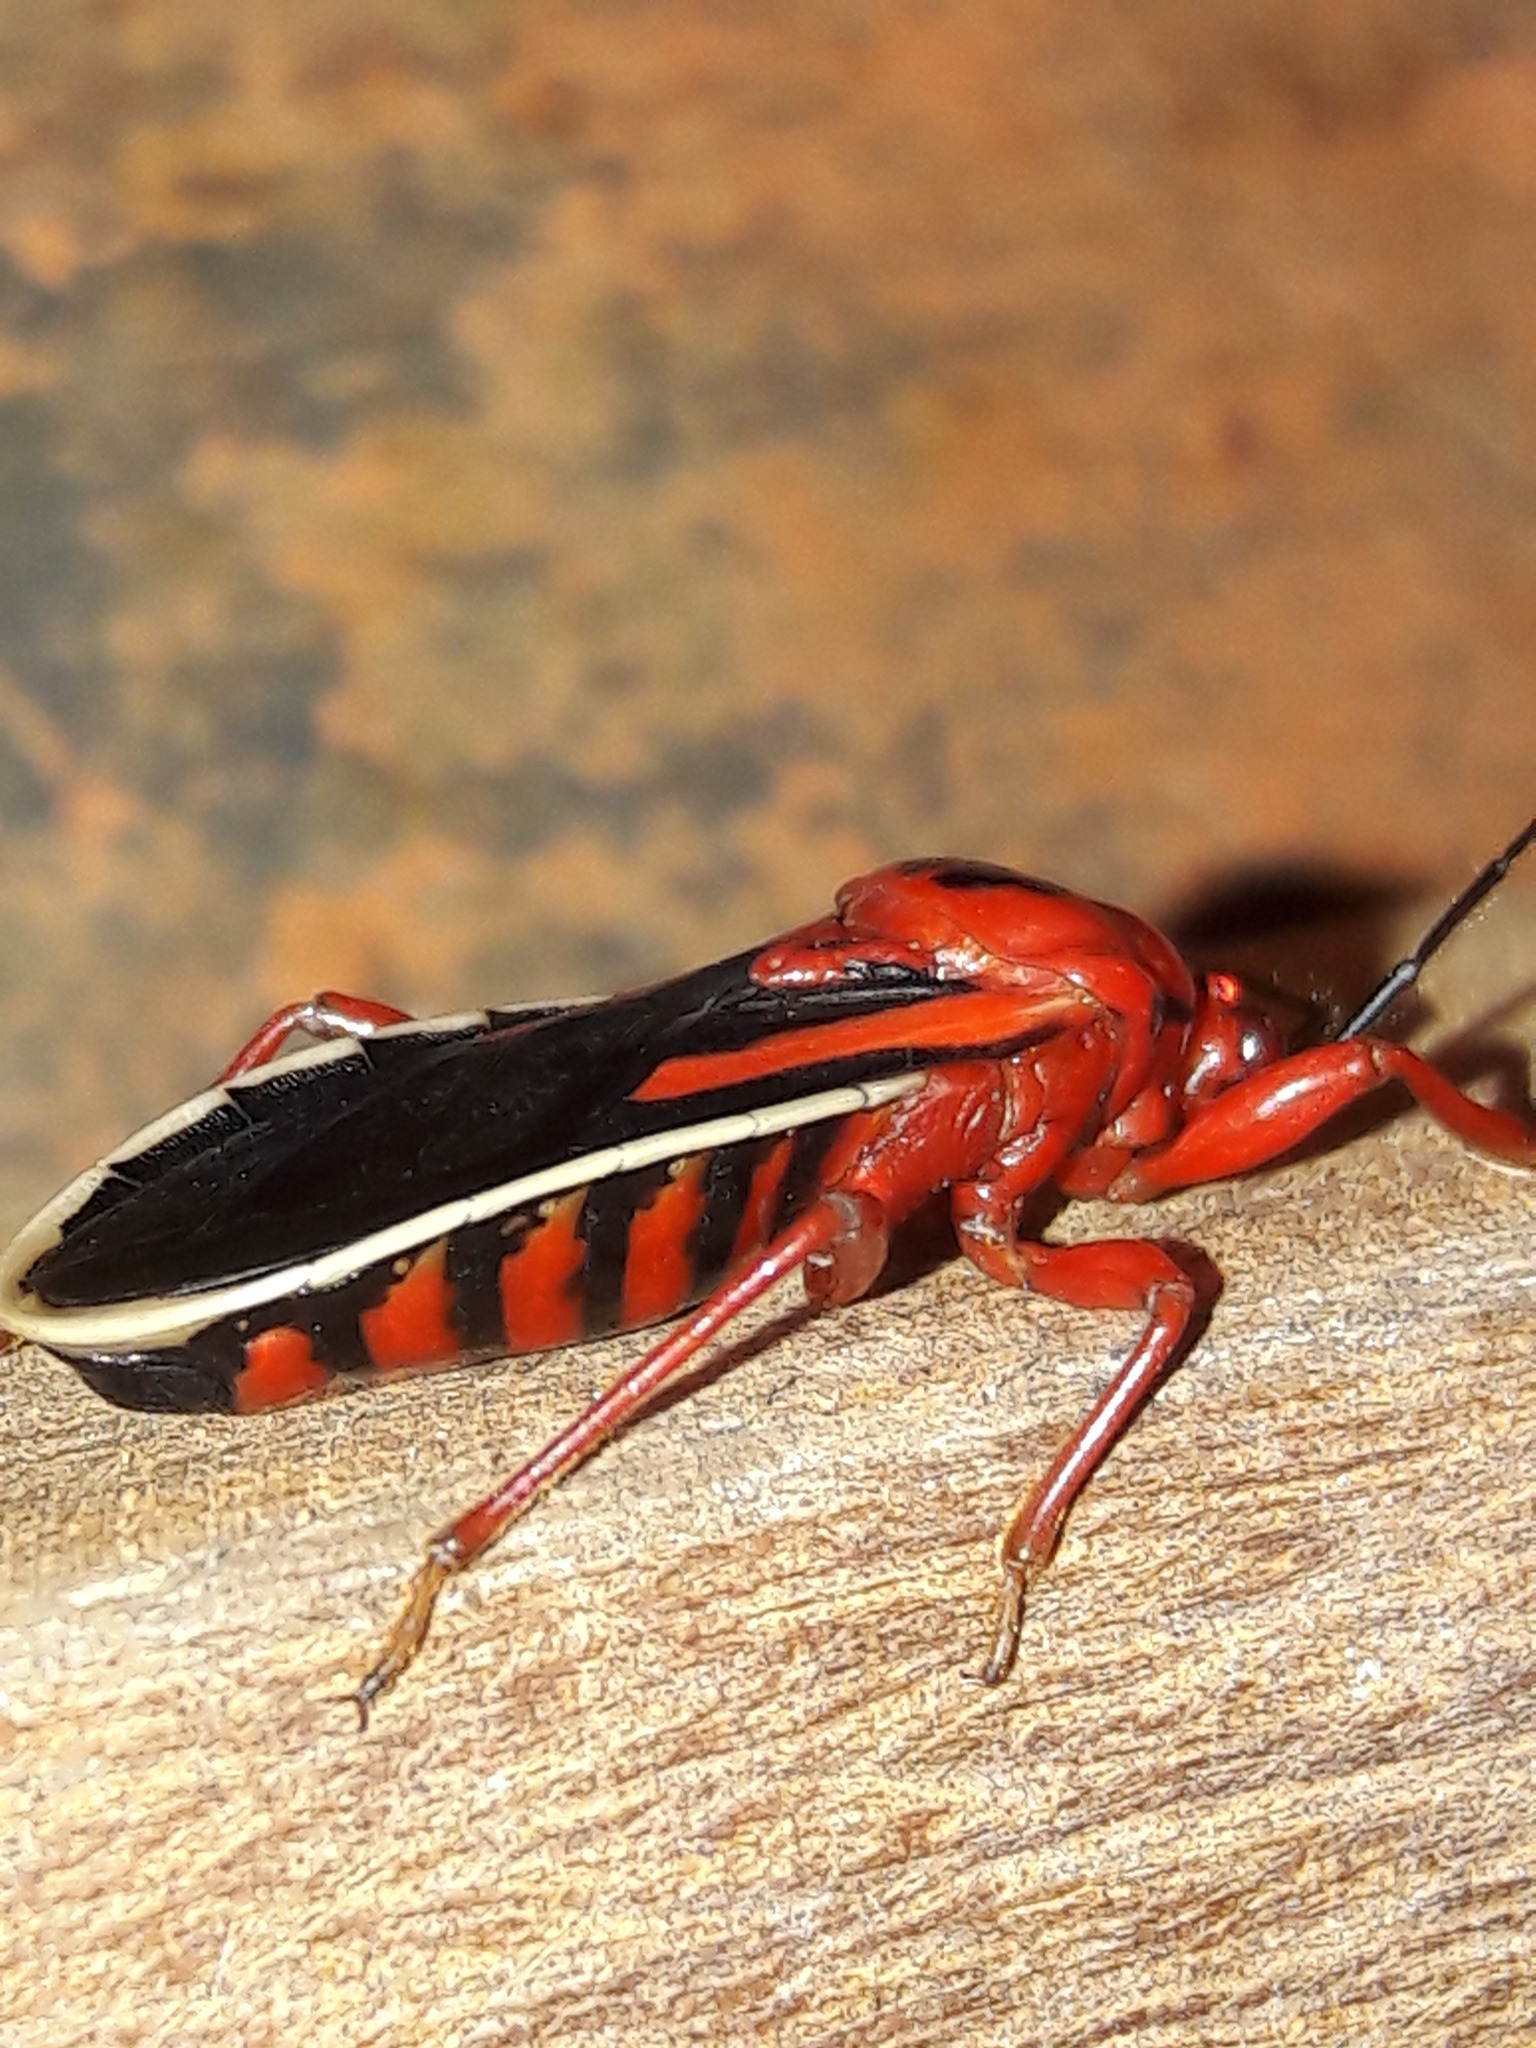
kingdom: Animalia
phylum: Arthropoda
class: Insecta
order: Hemiptera
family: Reduviidae
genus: Brontostoma
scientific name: Brontostoma discus
